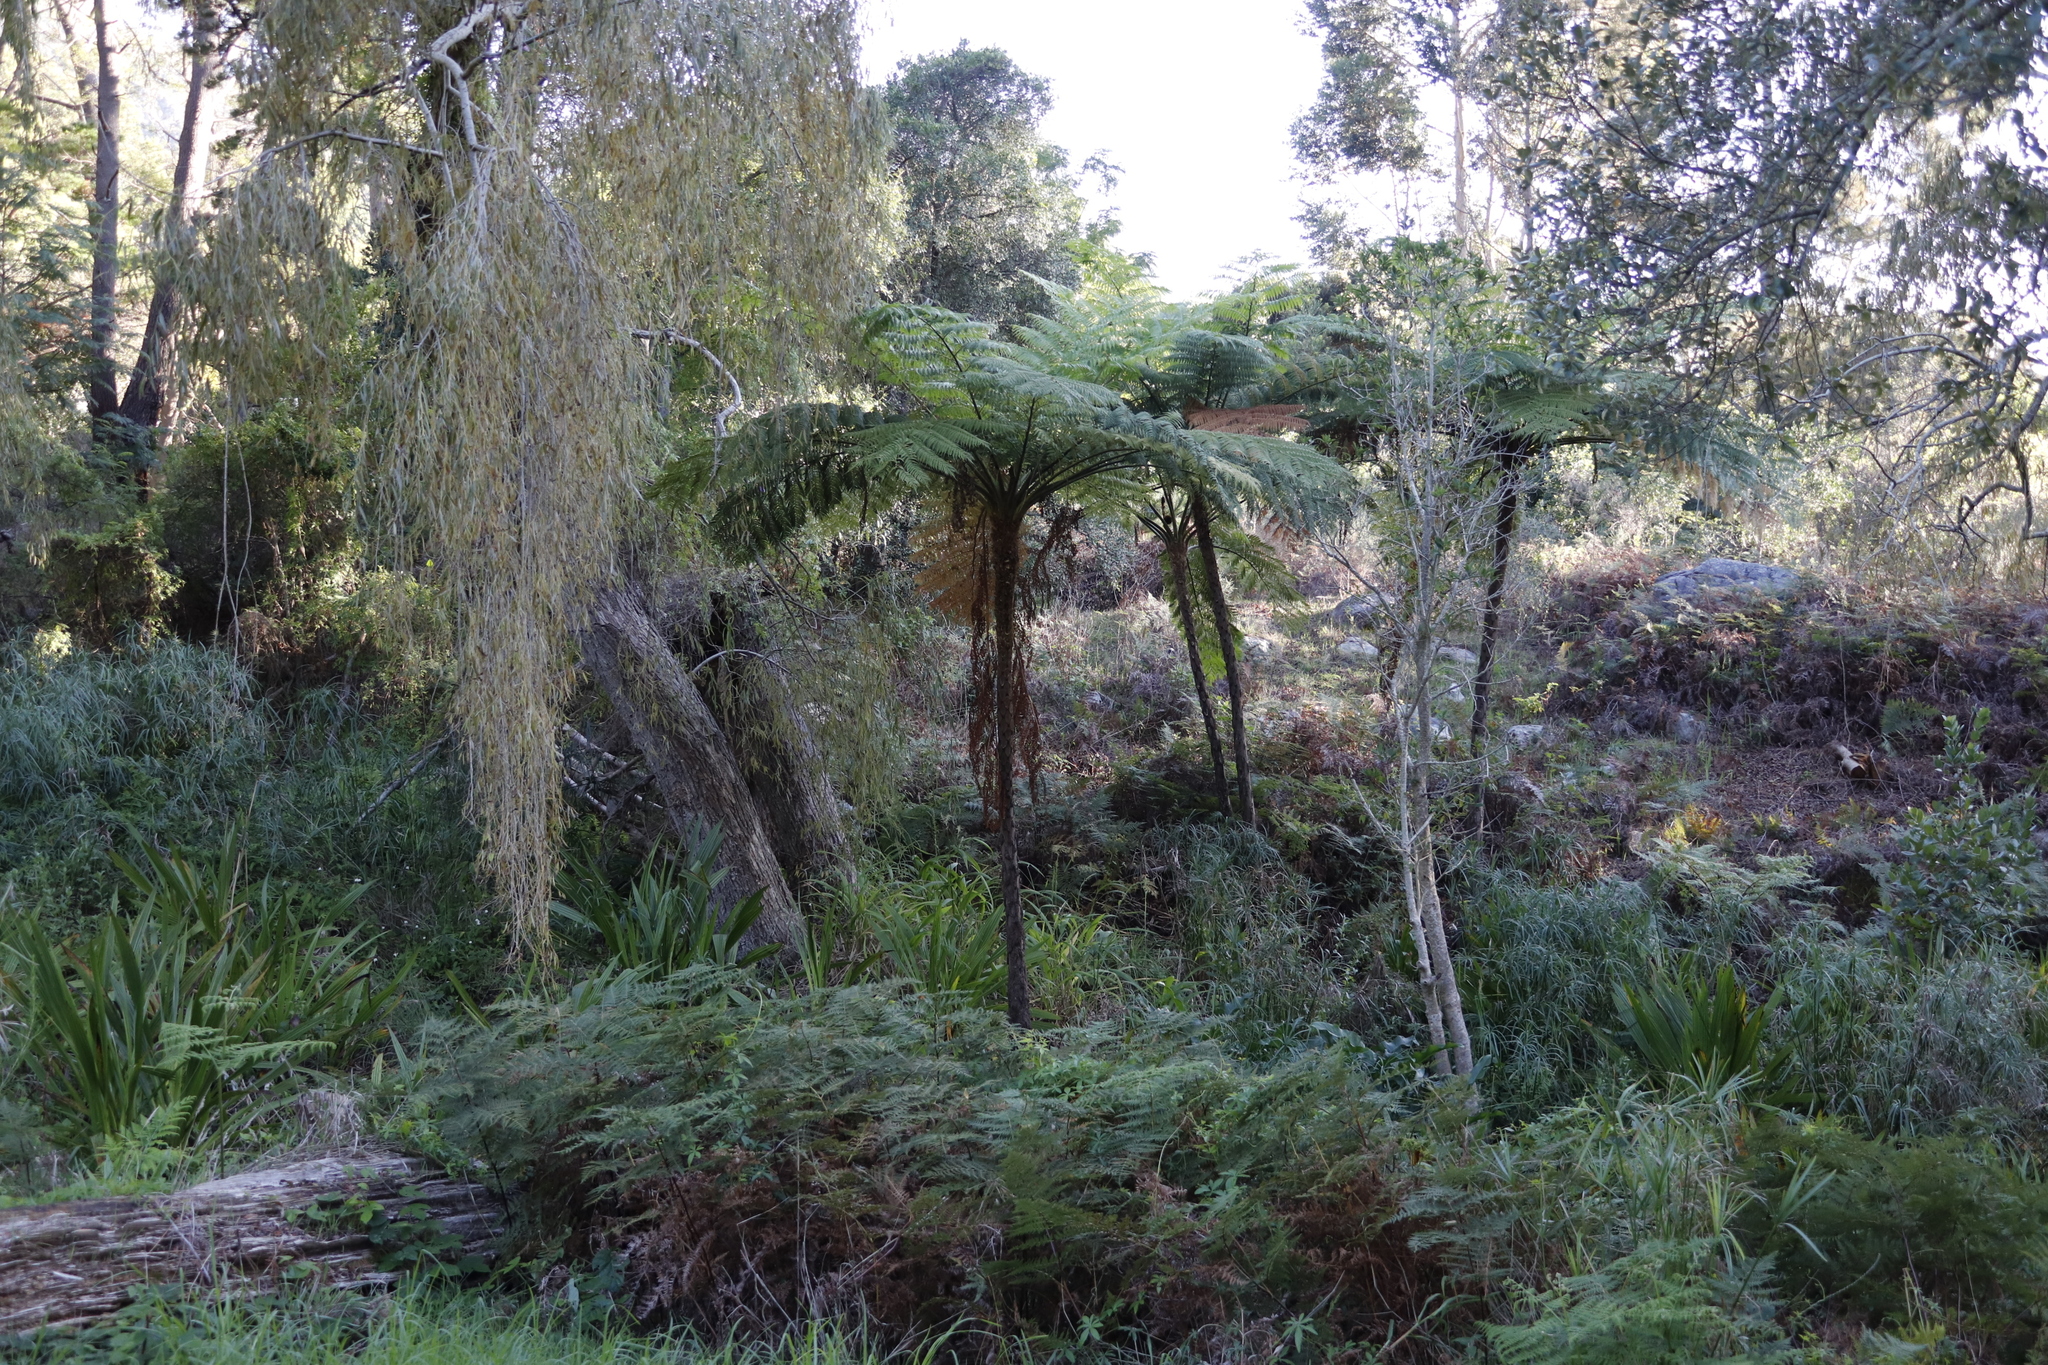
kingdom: Plantae
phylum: Tracheophyta
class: Polypodiopsida
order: Cyatheales
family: Cyatheaceae
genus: Sphaeropteris
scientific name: Sphaeropteris cooperi
